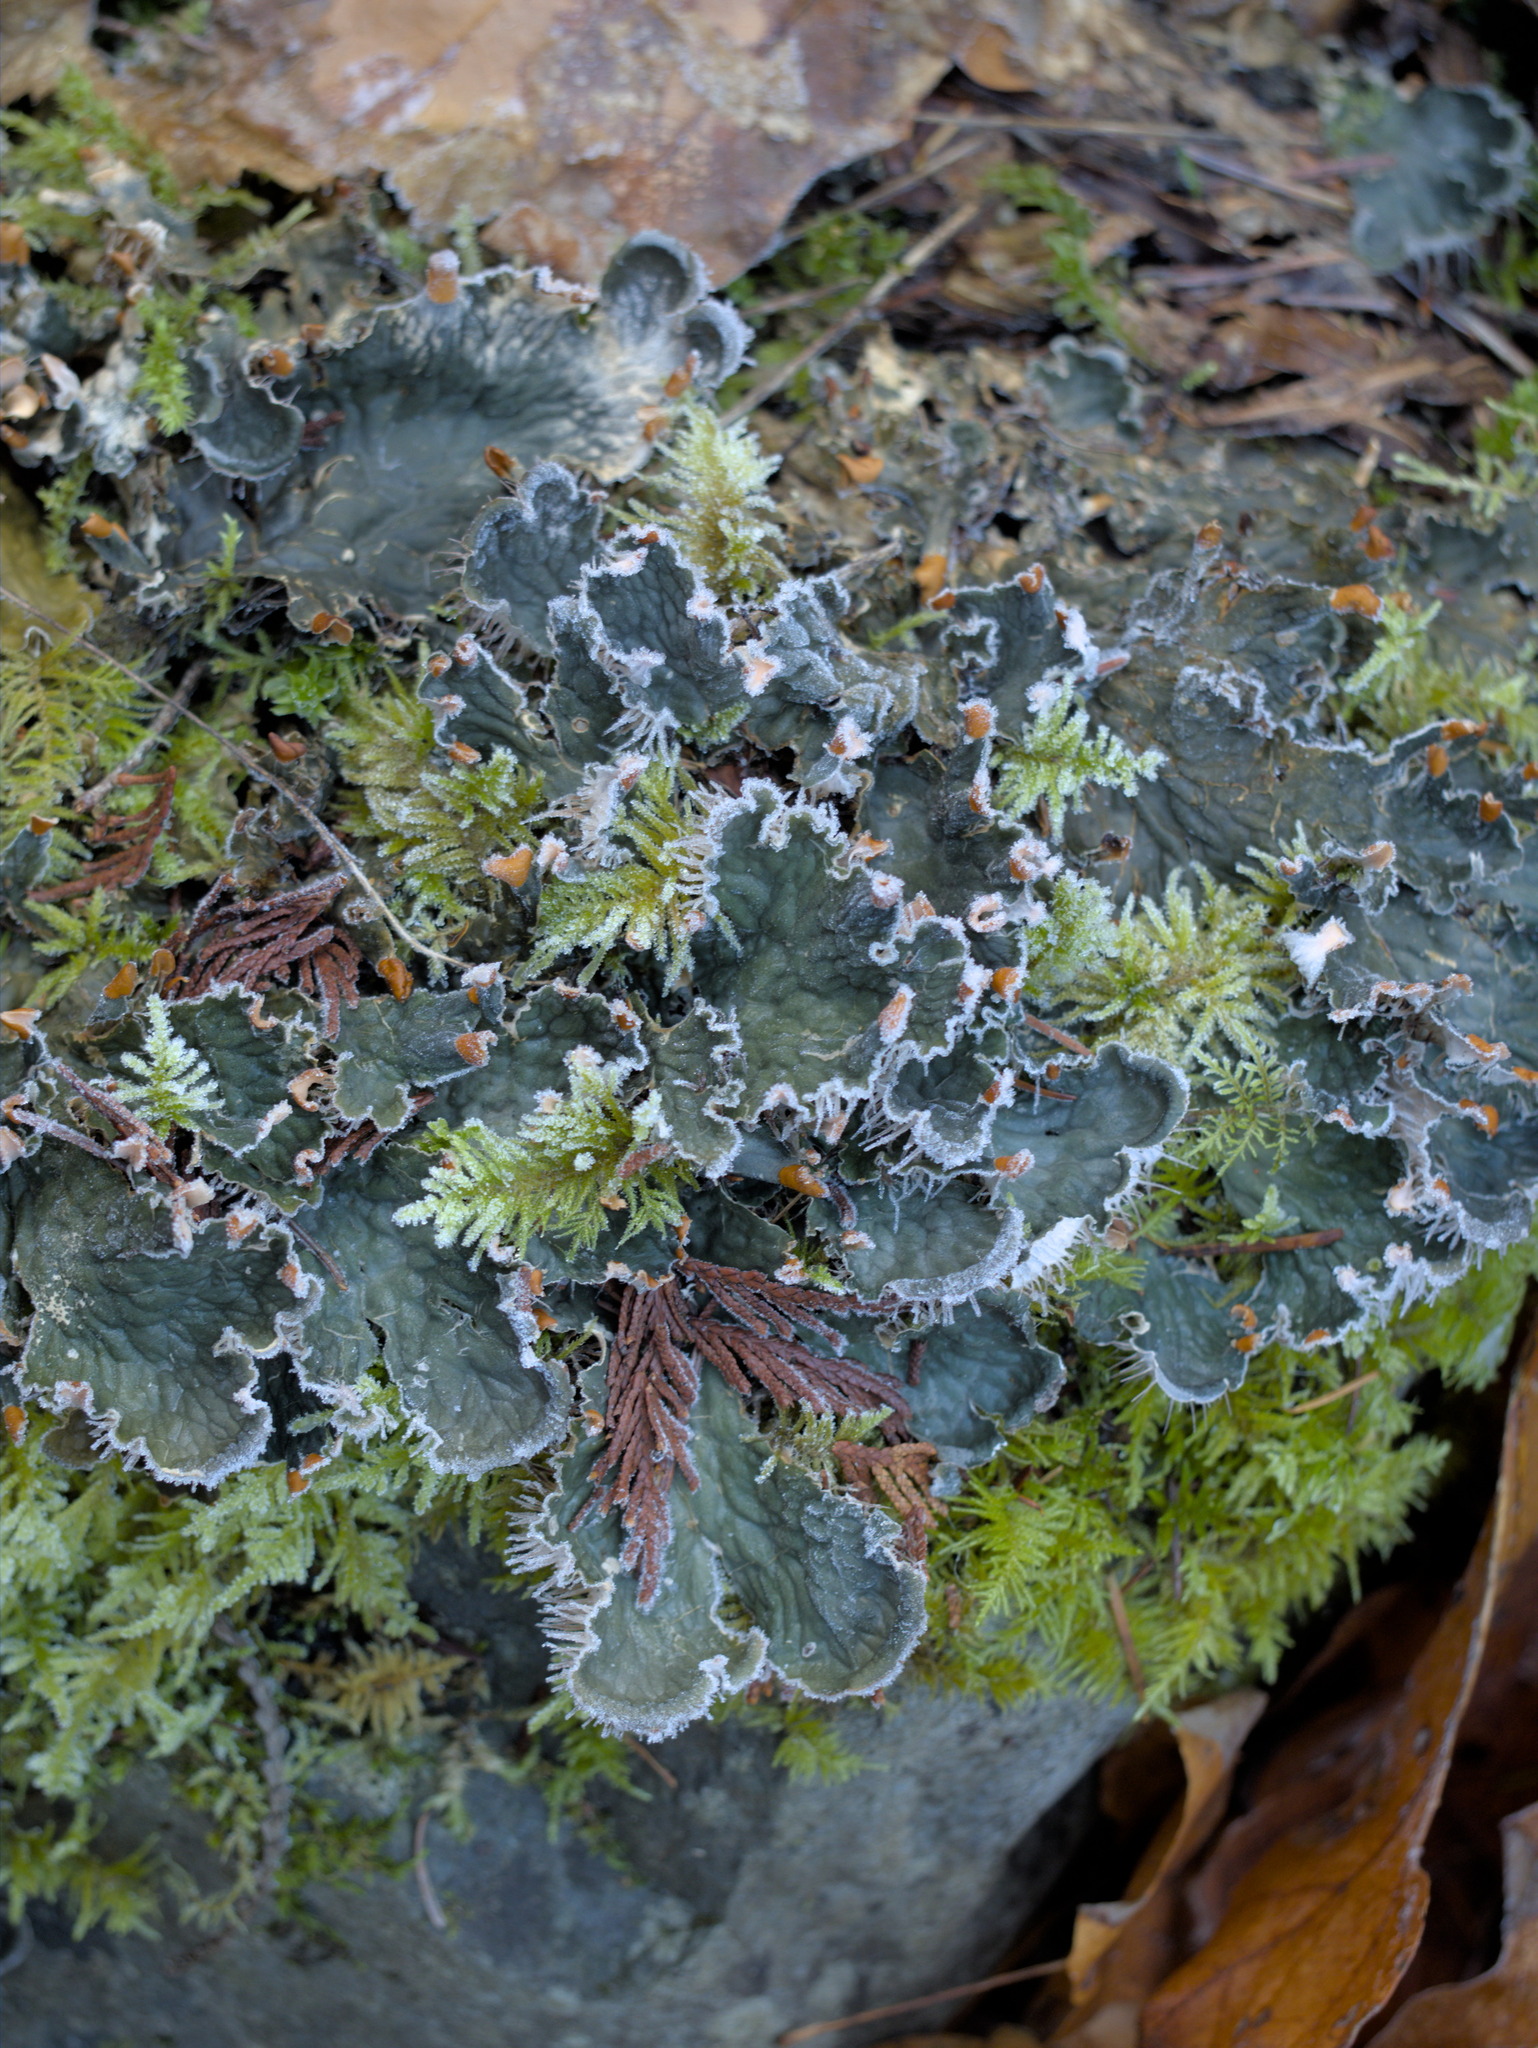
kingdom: Fungi
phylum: Ascomycota
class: Lecanoromycetes
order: Peltigerales
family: Peltigeraceae
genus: Peltigera
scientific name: Peltigera membranacea
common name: Membranous pelt lichen
